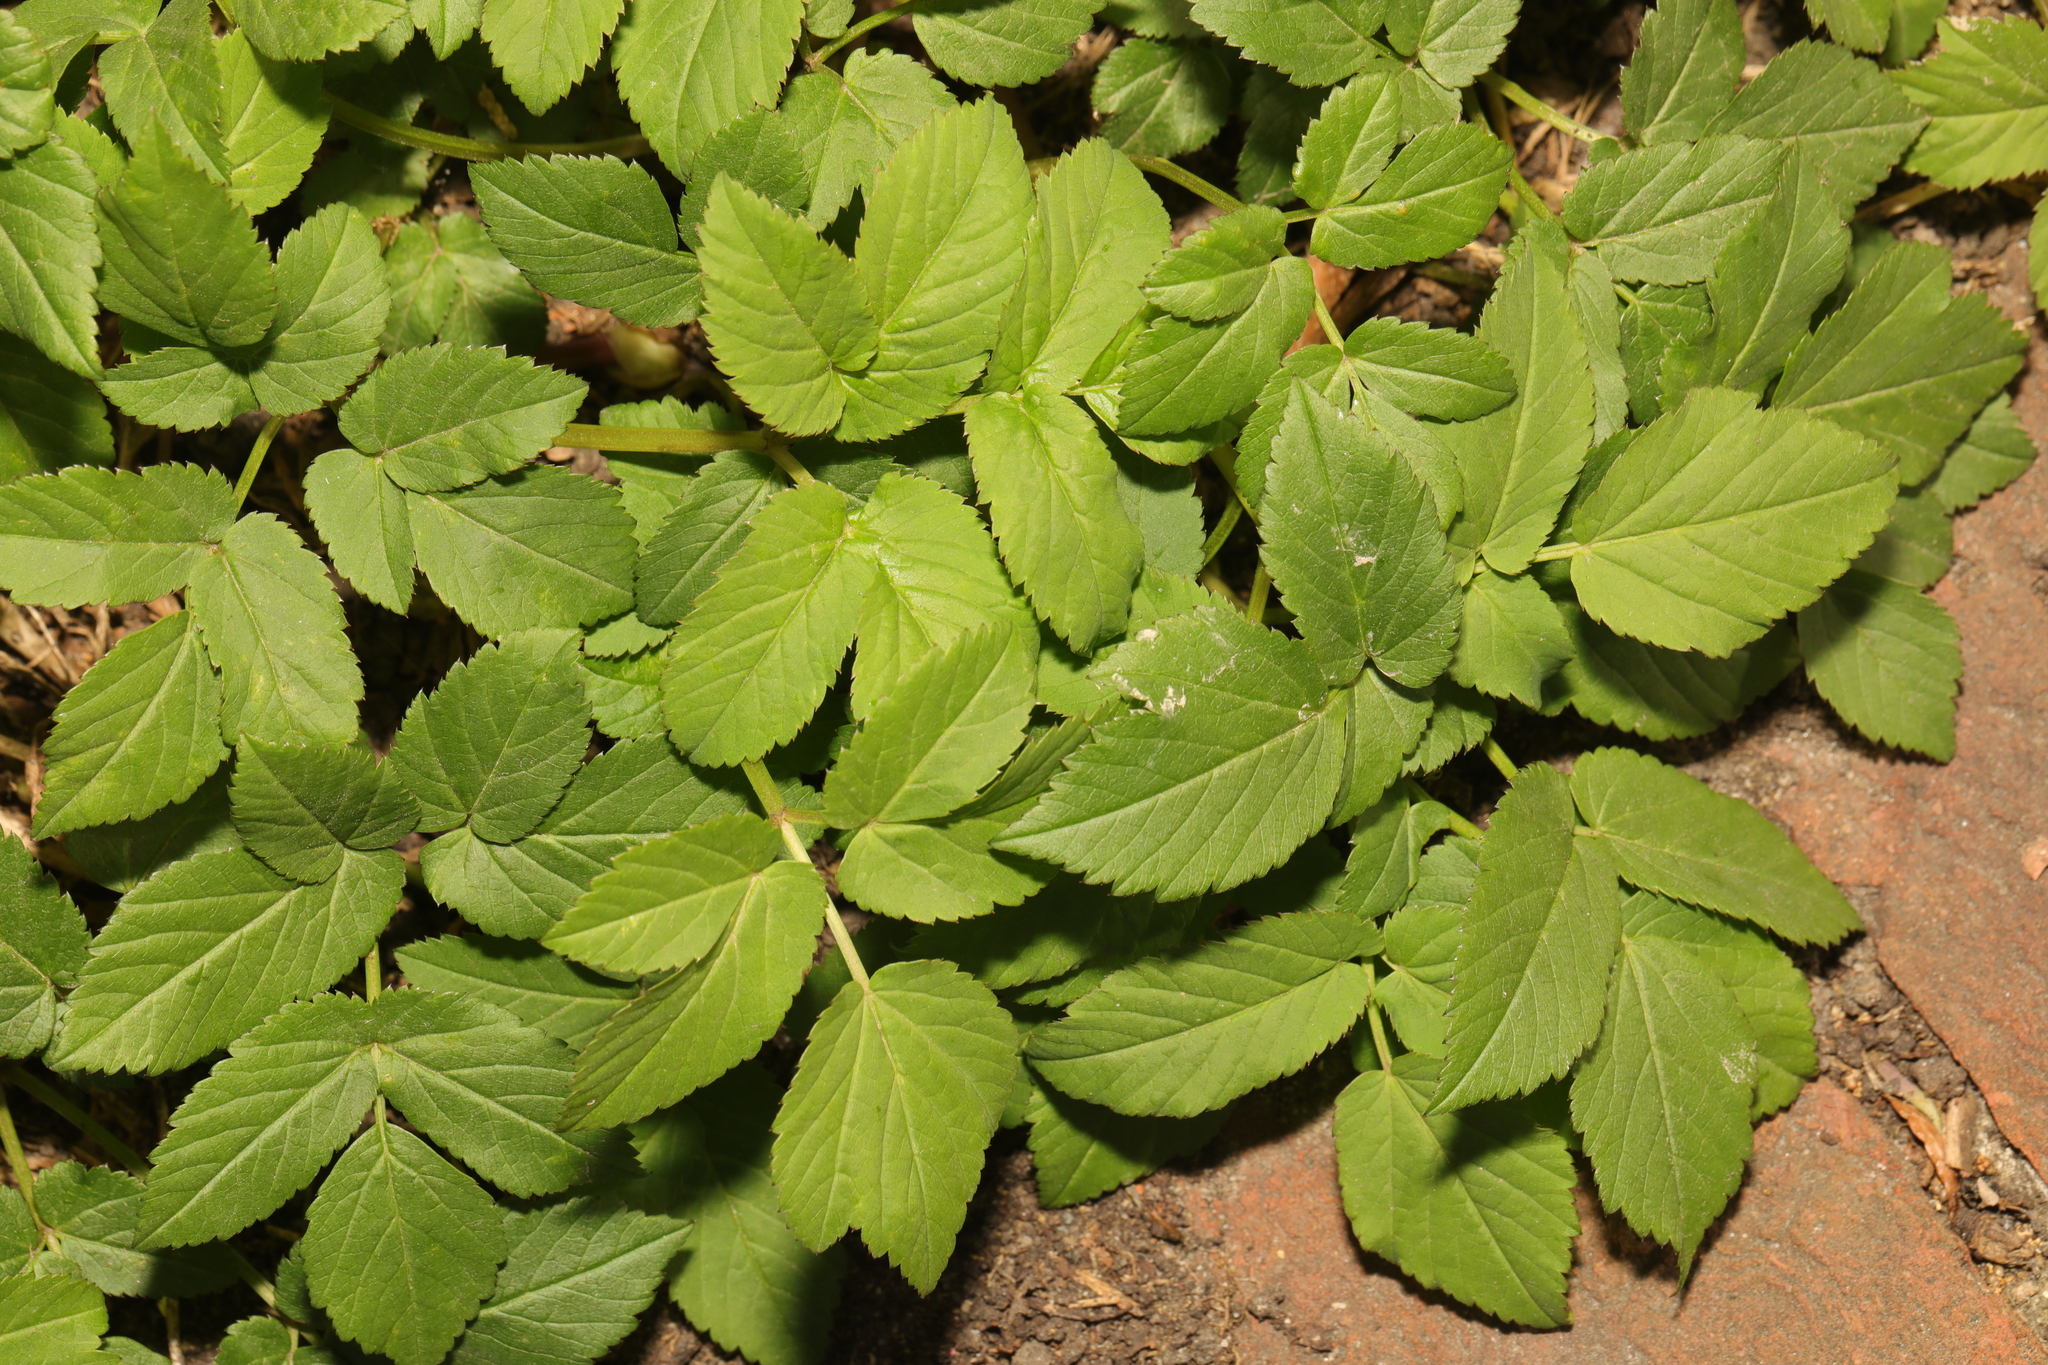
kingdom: Plantae
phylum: Tracheophyta
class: Magnoliopsida
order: Apiales
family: Apiaceae
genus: Aegopodium
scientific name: Aegopodium podagraria
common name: Ground-elder
